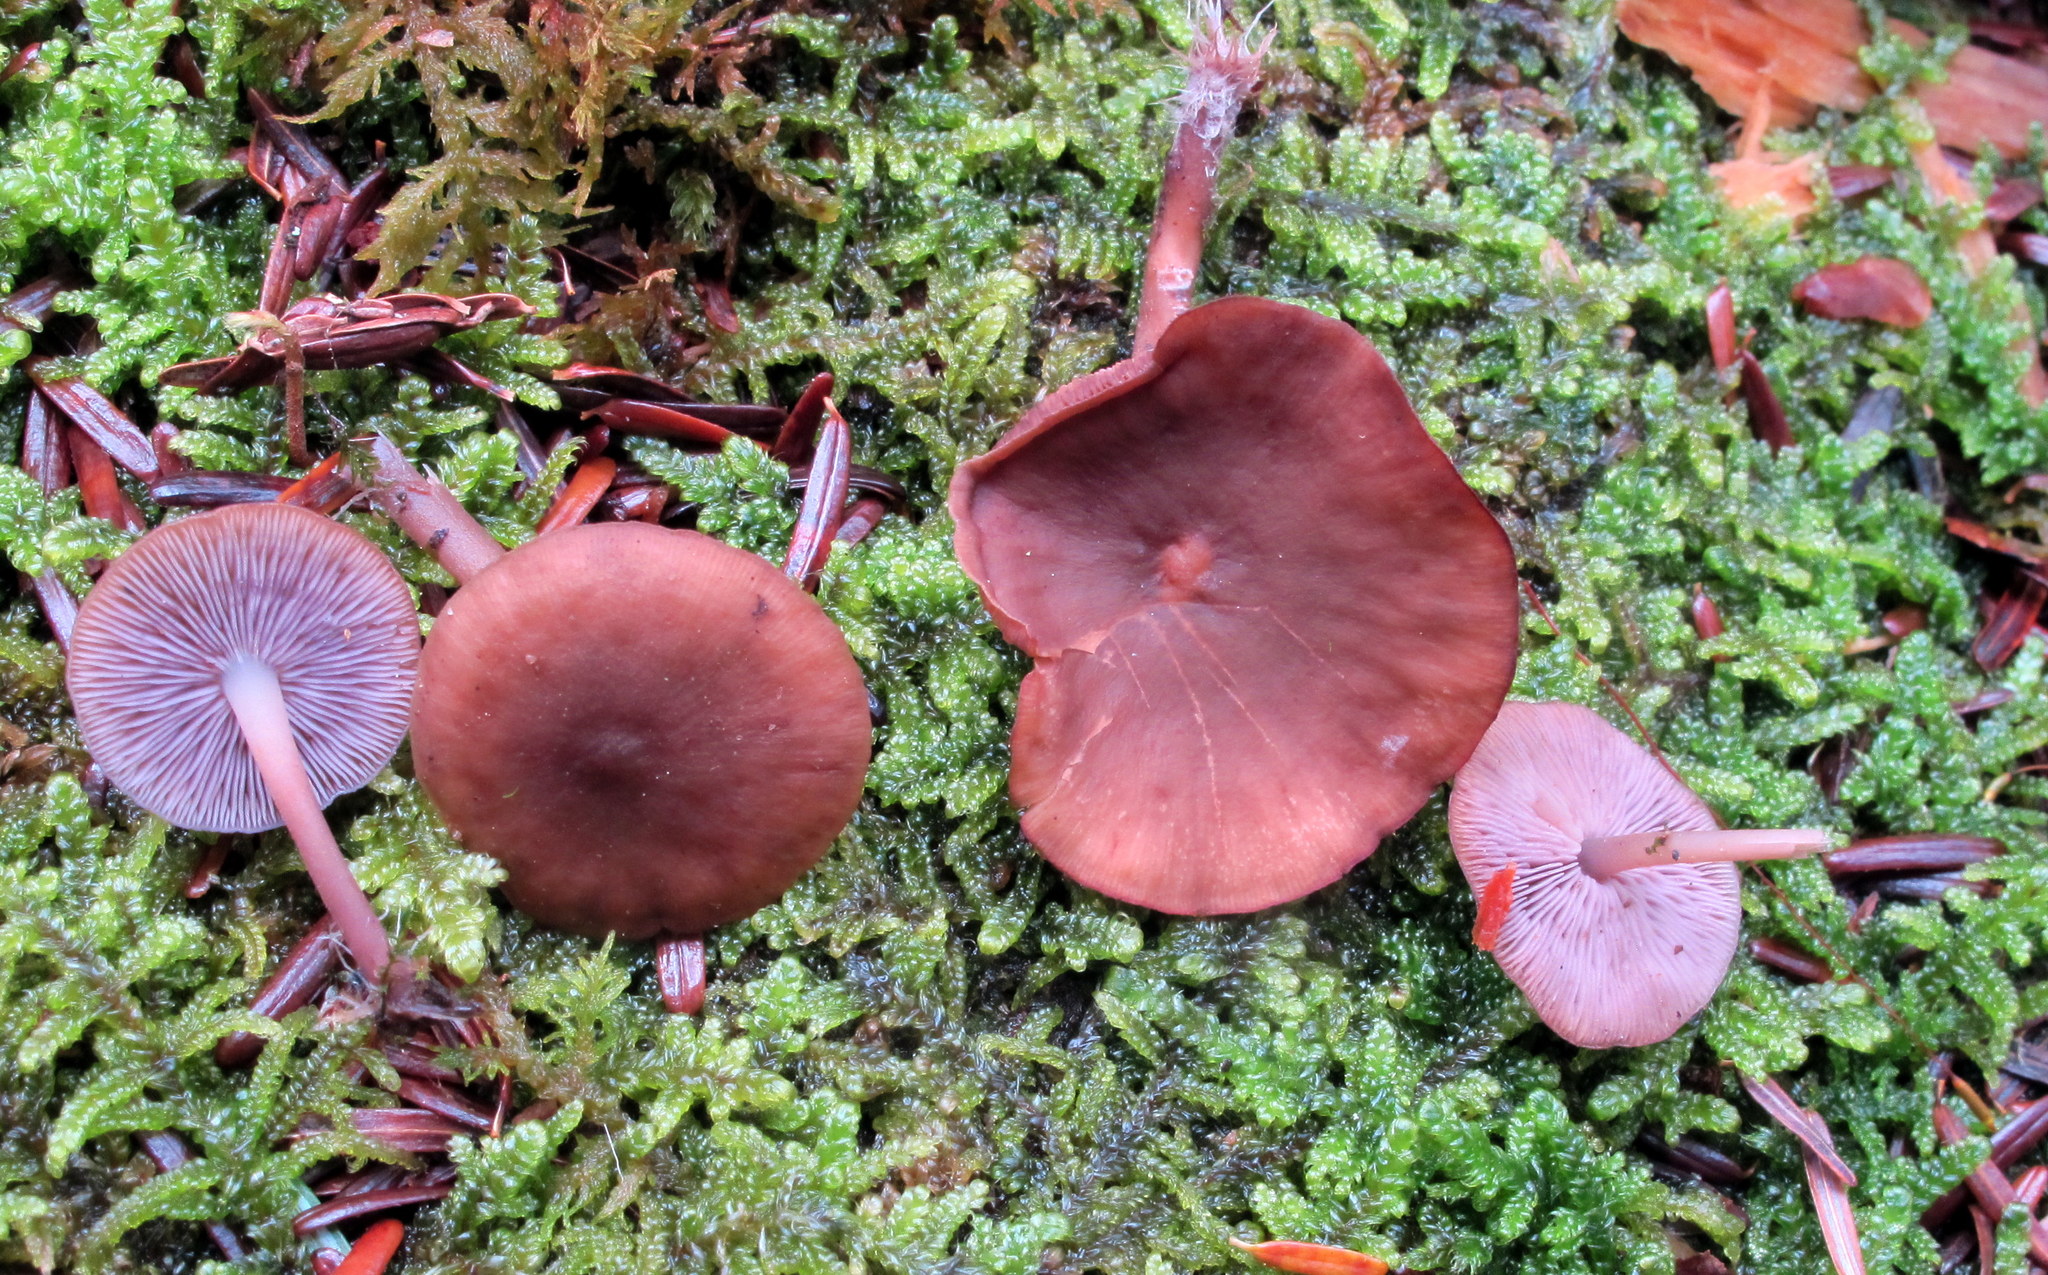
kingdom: Fungi
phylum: Basidiomycota
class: Agaricomycetes
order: Agaricales
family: Marasmiaceae
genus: Baeospora
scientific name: Baeospora myriadophylla
